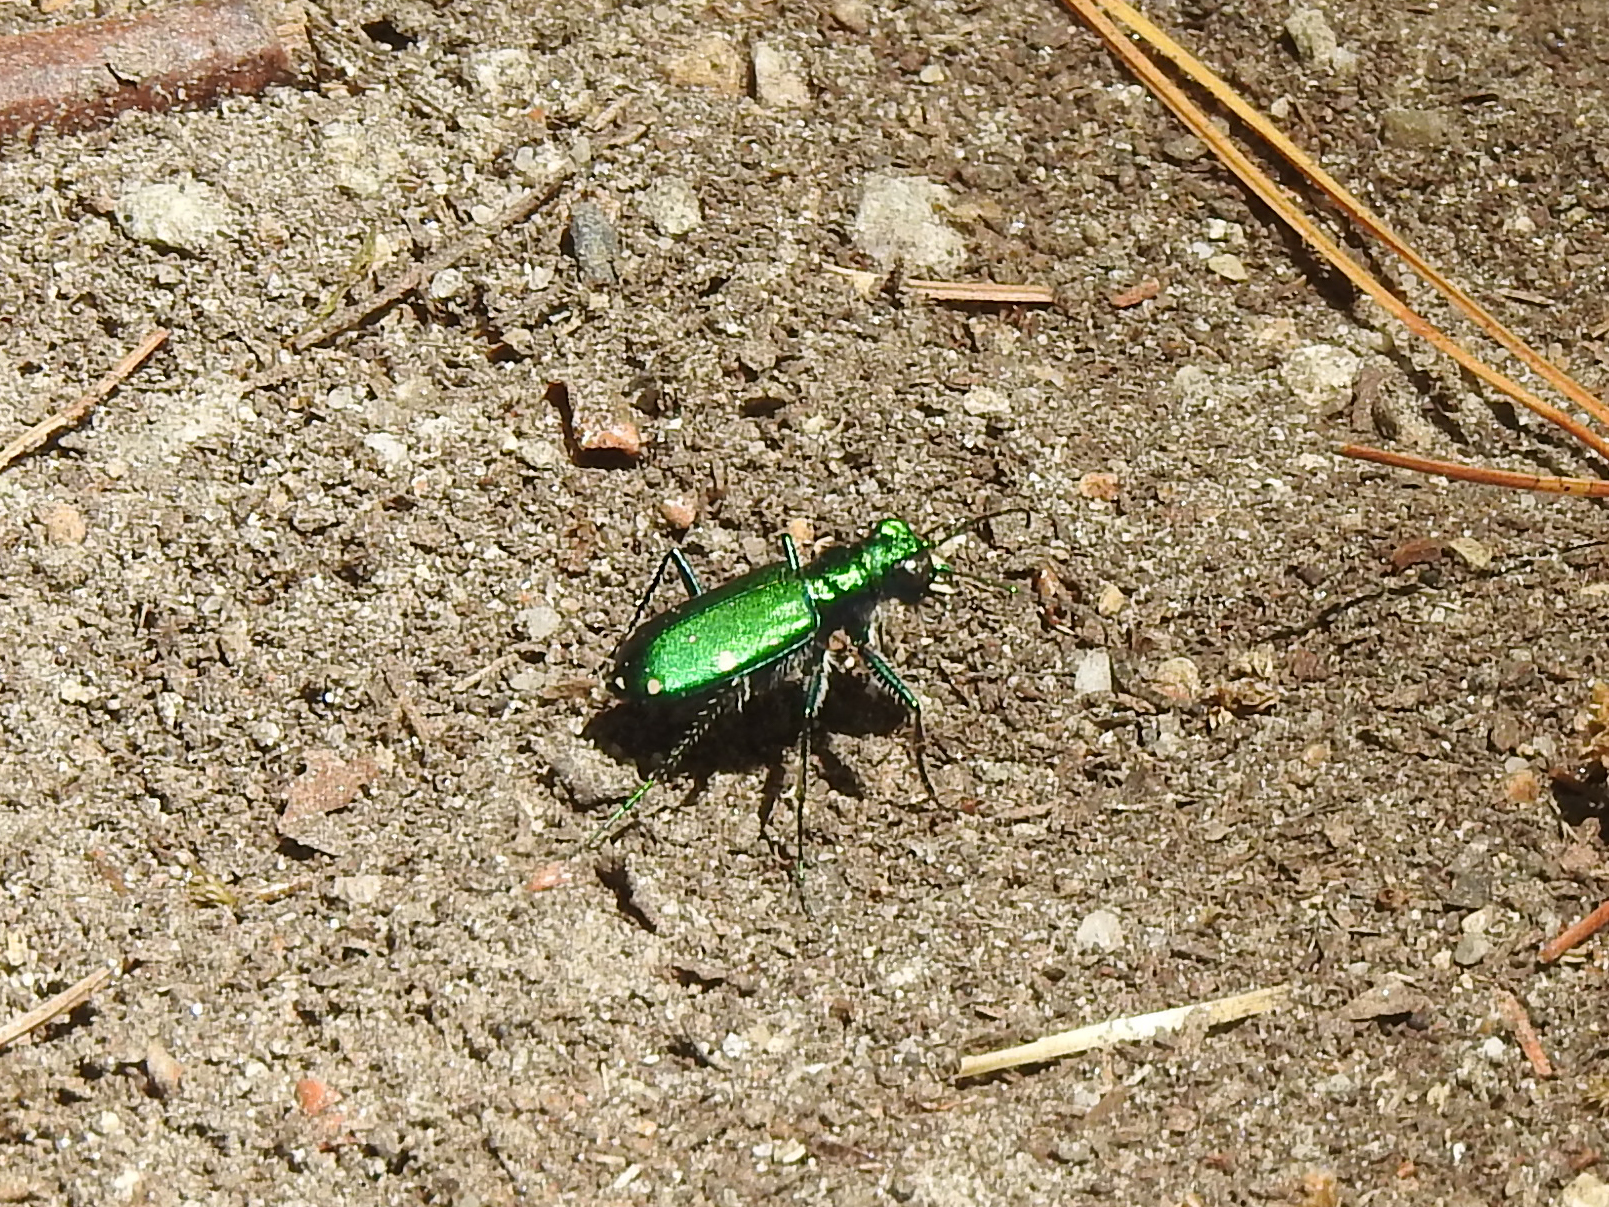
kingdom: Animalia
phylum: Arthropoda
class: Insecta
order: Coleoptera
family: Carabidae
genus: Cicindela
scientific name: Cicindela sexguttata
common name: Six-spotted tiger beetle
